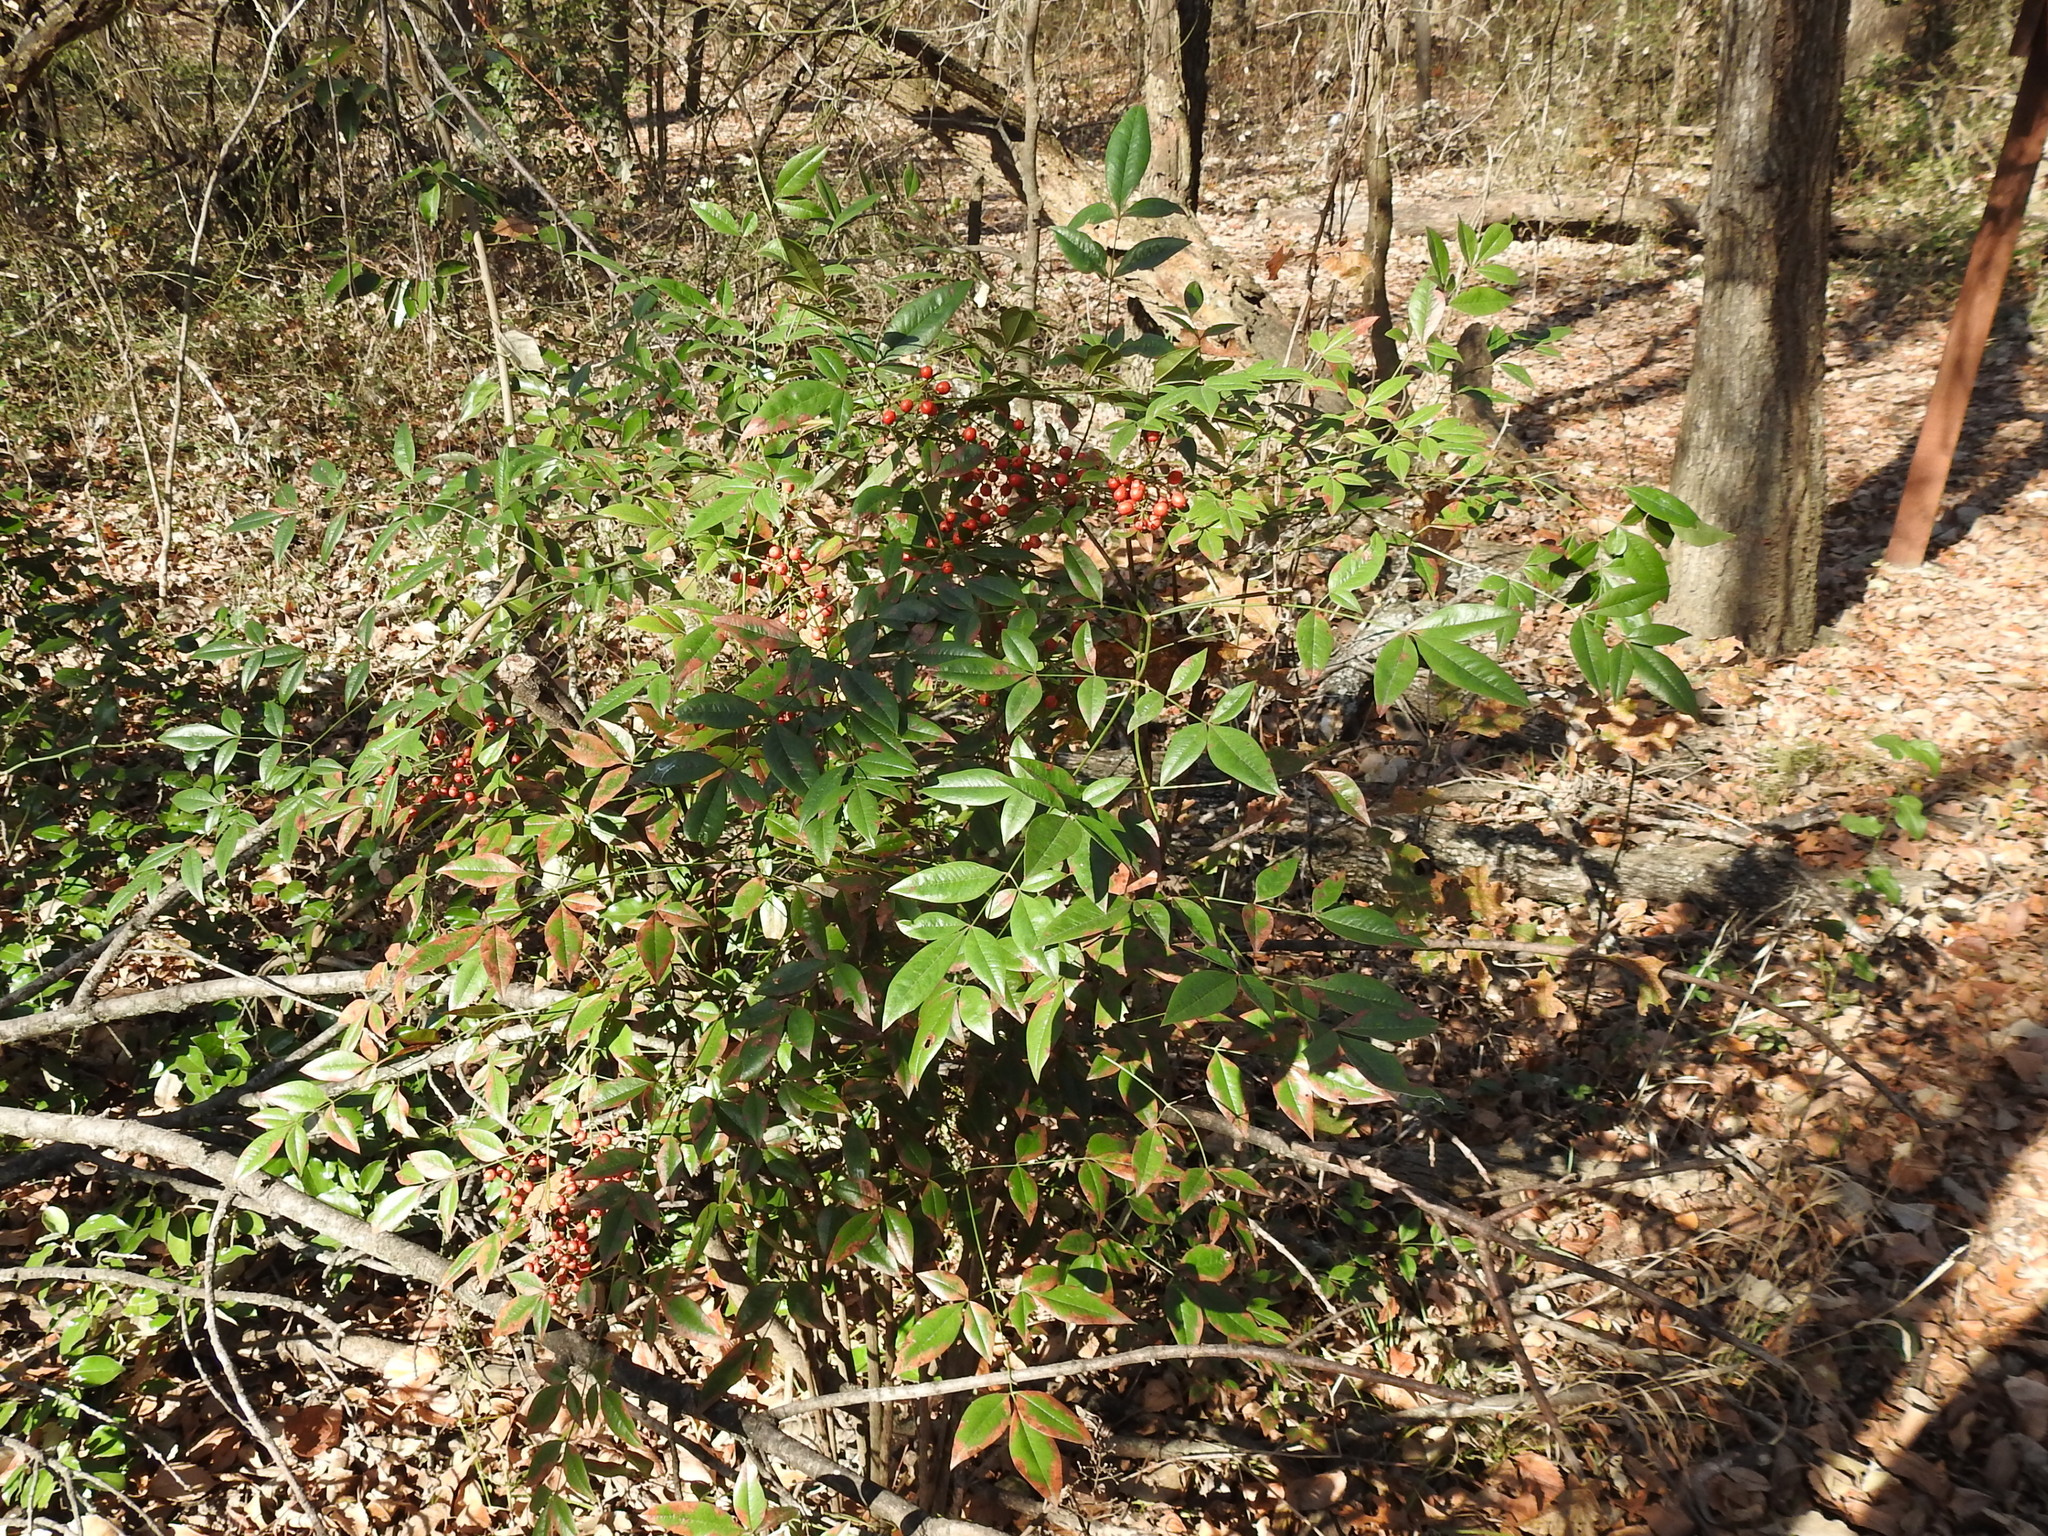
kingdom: Plantae
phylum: Tracheophyta
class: Magnoliopsida
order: Ranunculales
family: Berberidaceae
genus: Nandina
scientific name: Nandina domestica
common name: Sacred bamboo
